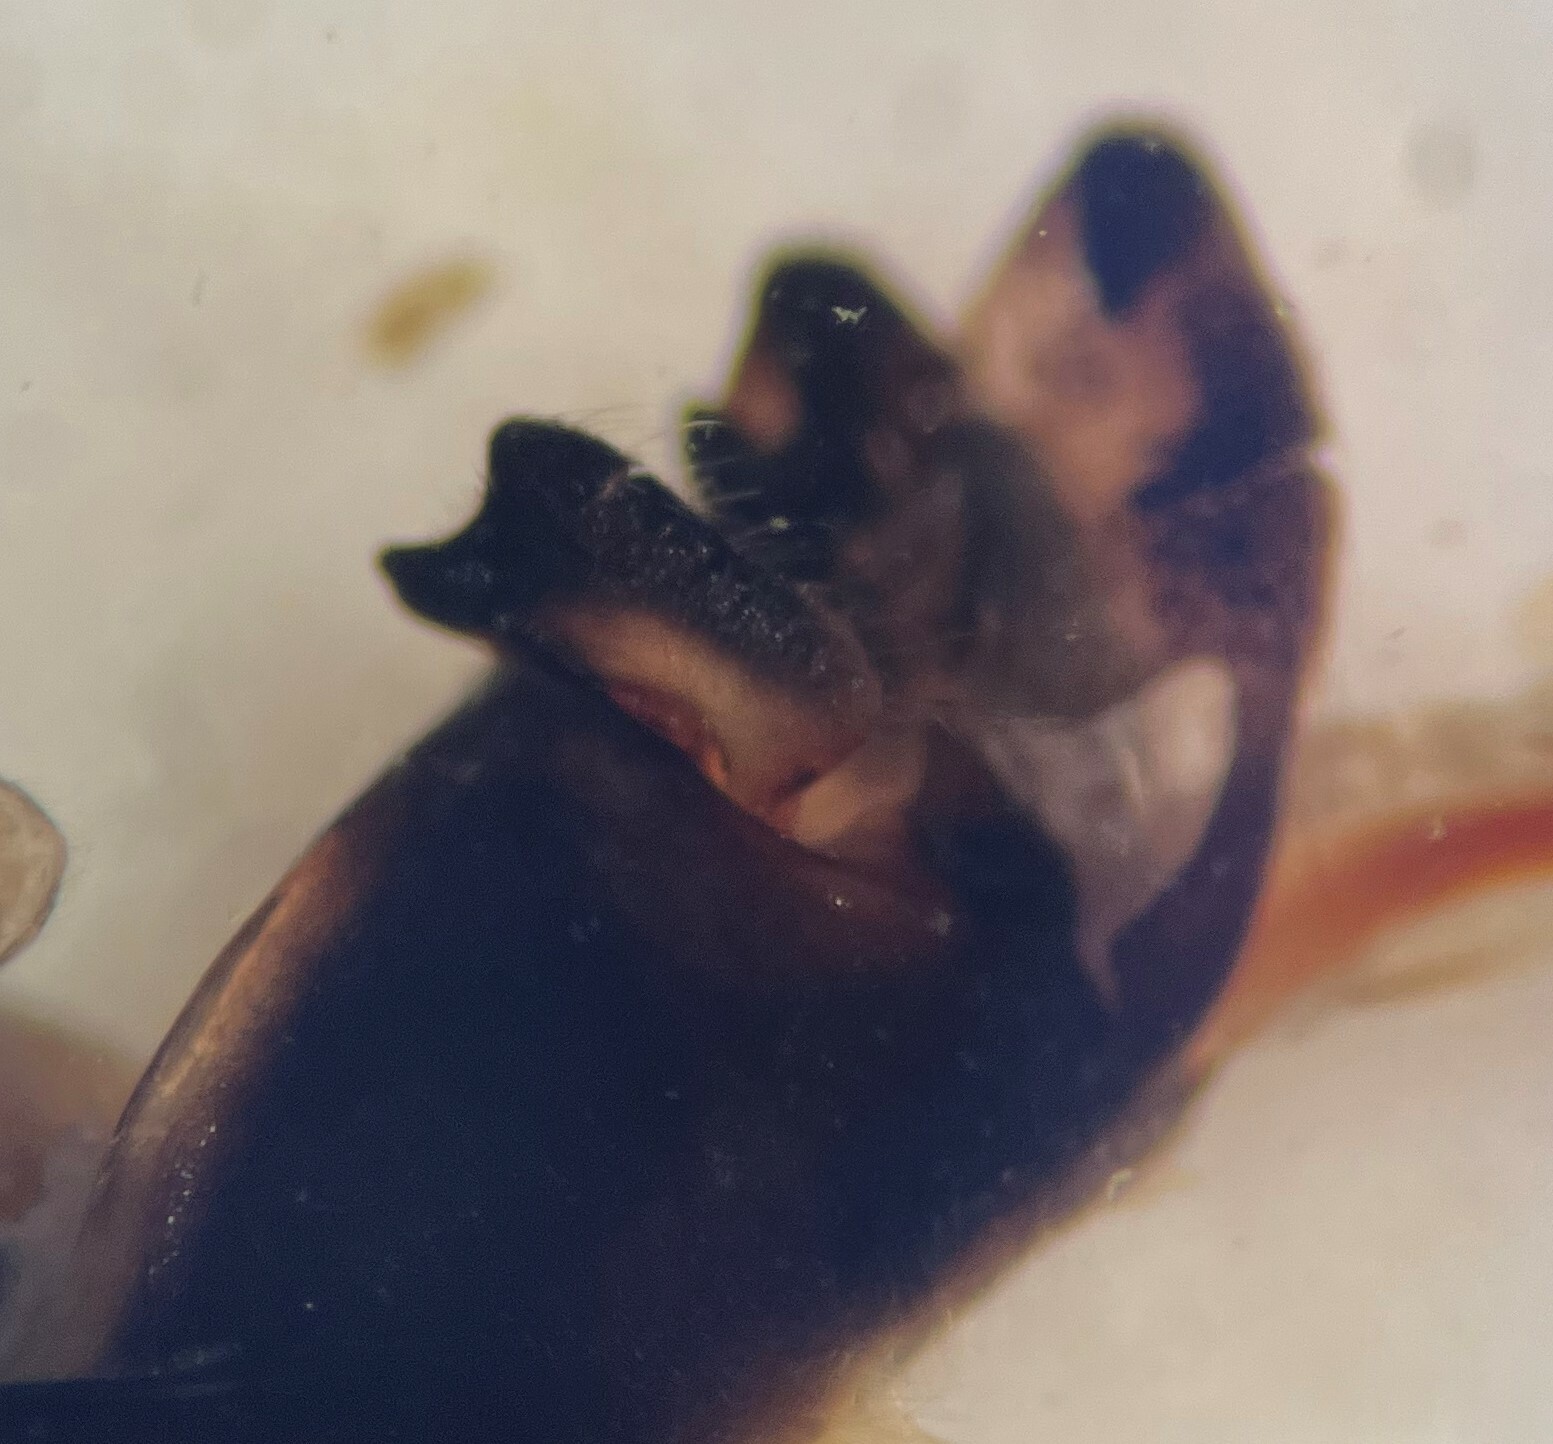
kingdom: Animalia
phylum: Arthropoda
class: Insecta
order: Hemiptera
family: Notonectidae
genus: Notonecta
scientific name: Notonecta indica
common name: Backswimmer
